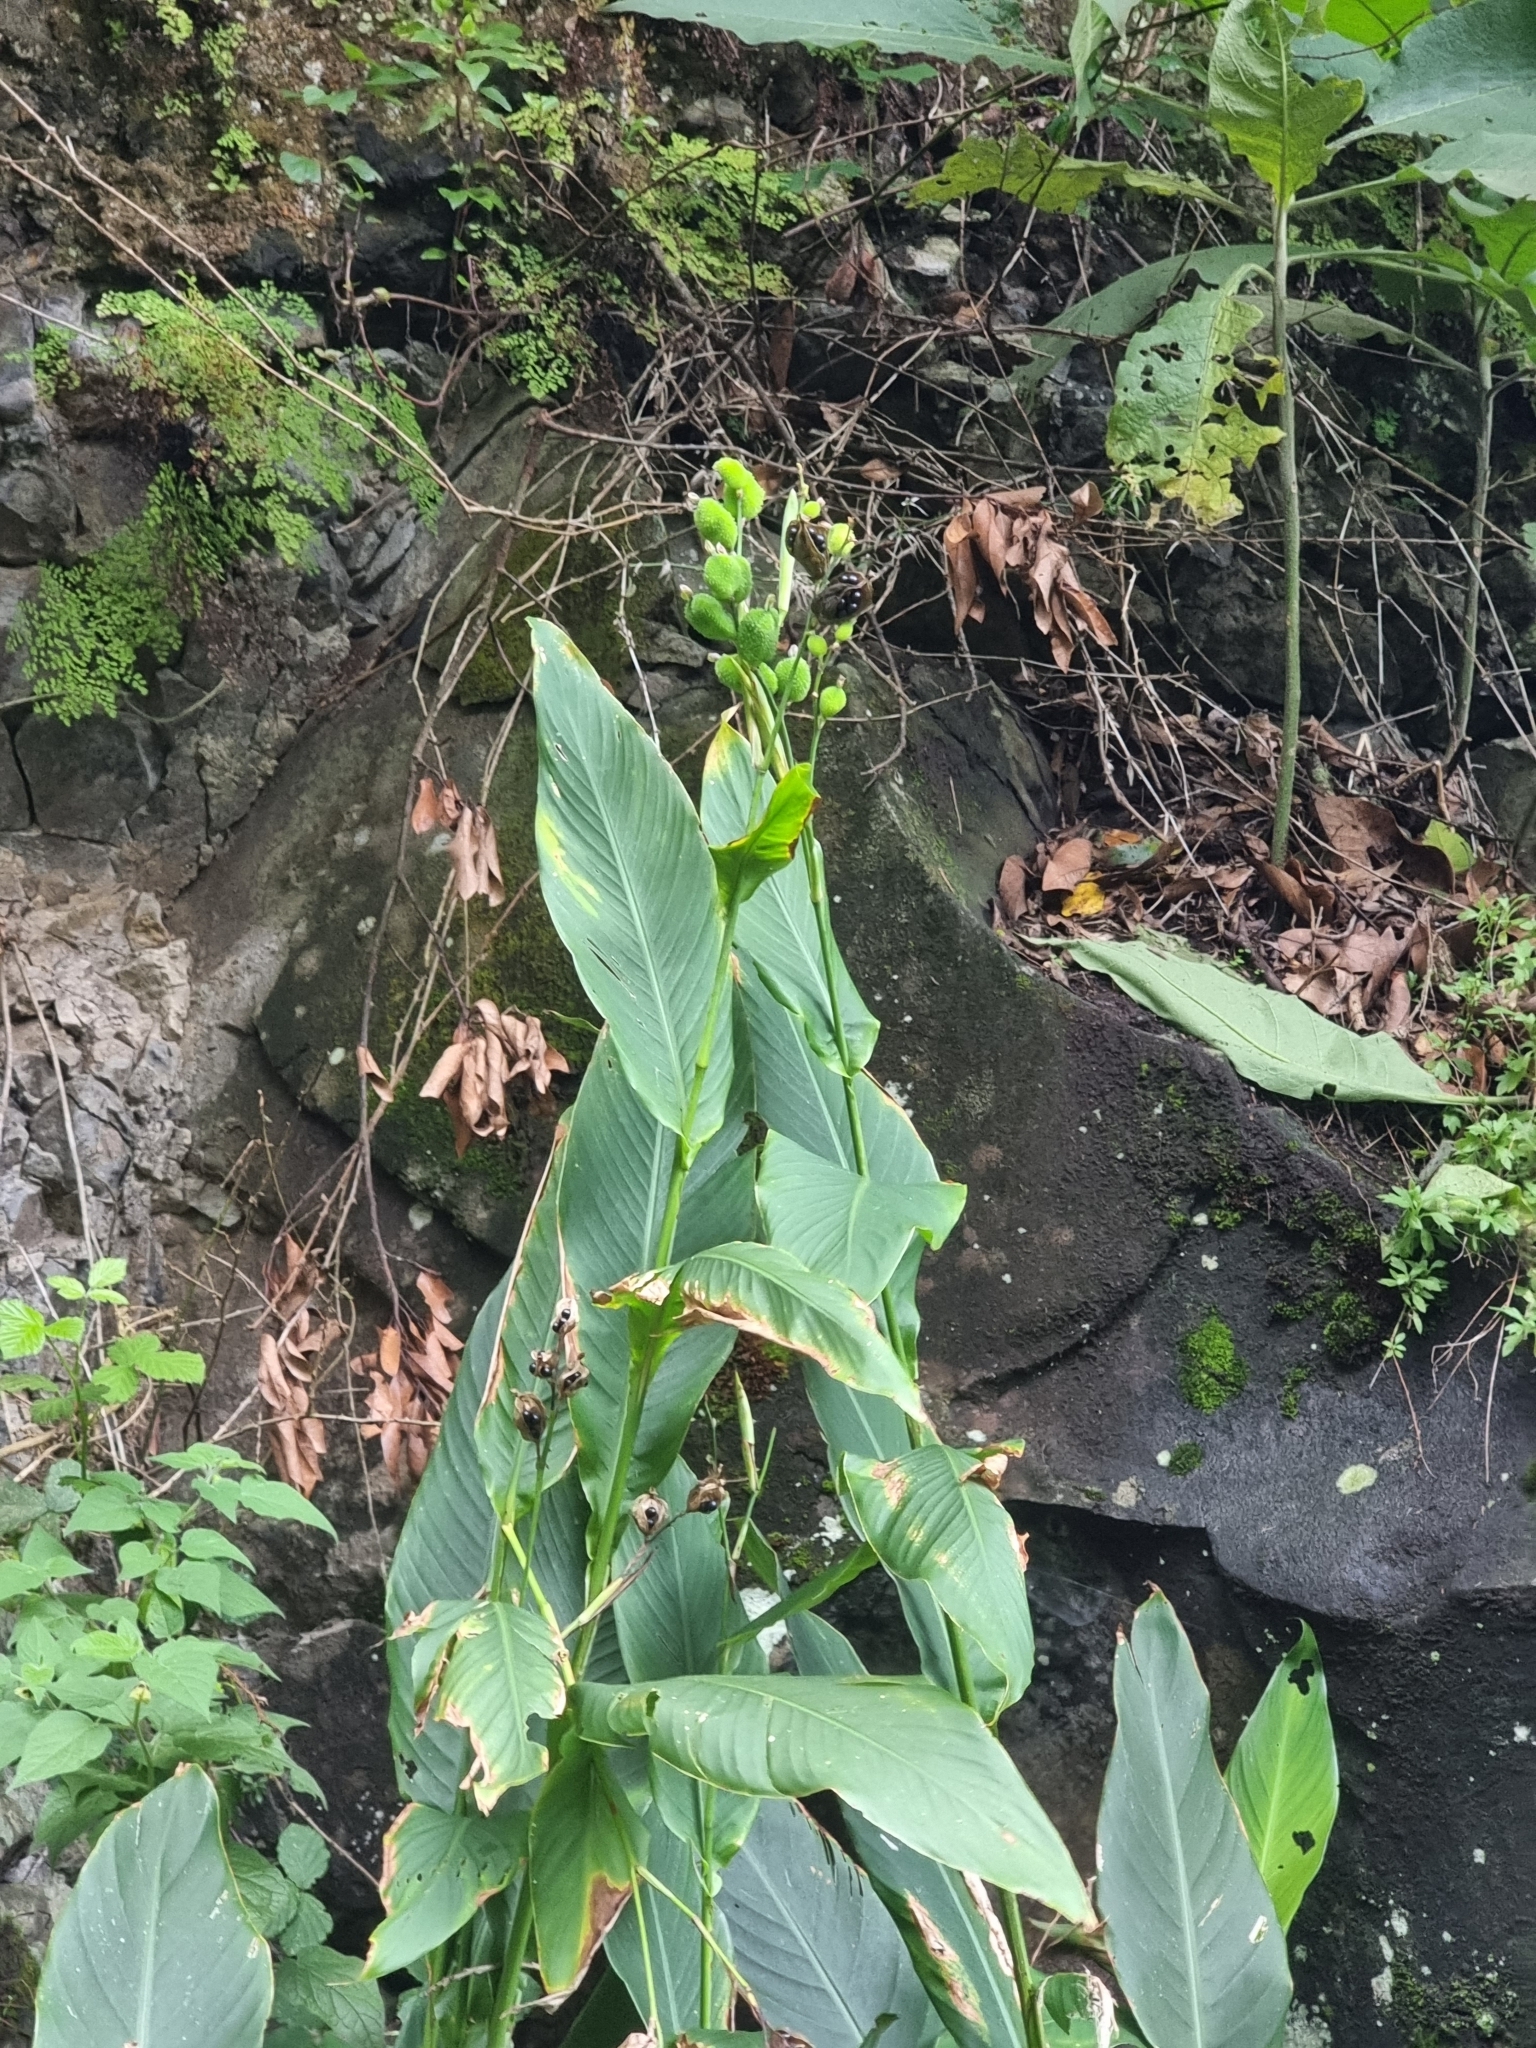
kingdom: Plantae
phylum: Tracheophyta
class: Liliopsida
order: Zingiberales
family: Cannaceae
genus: Canna
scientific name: Canna indica
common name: Indian shot
